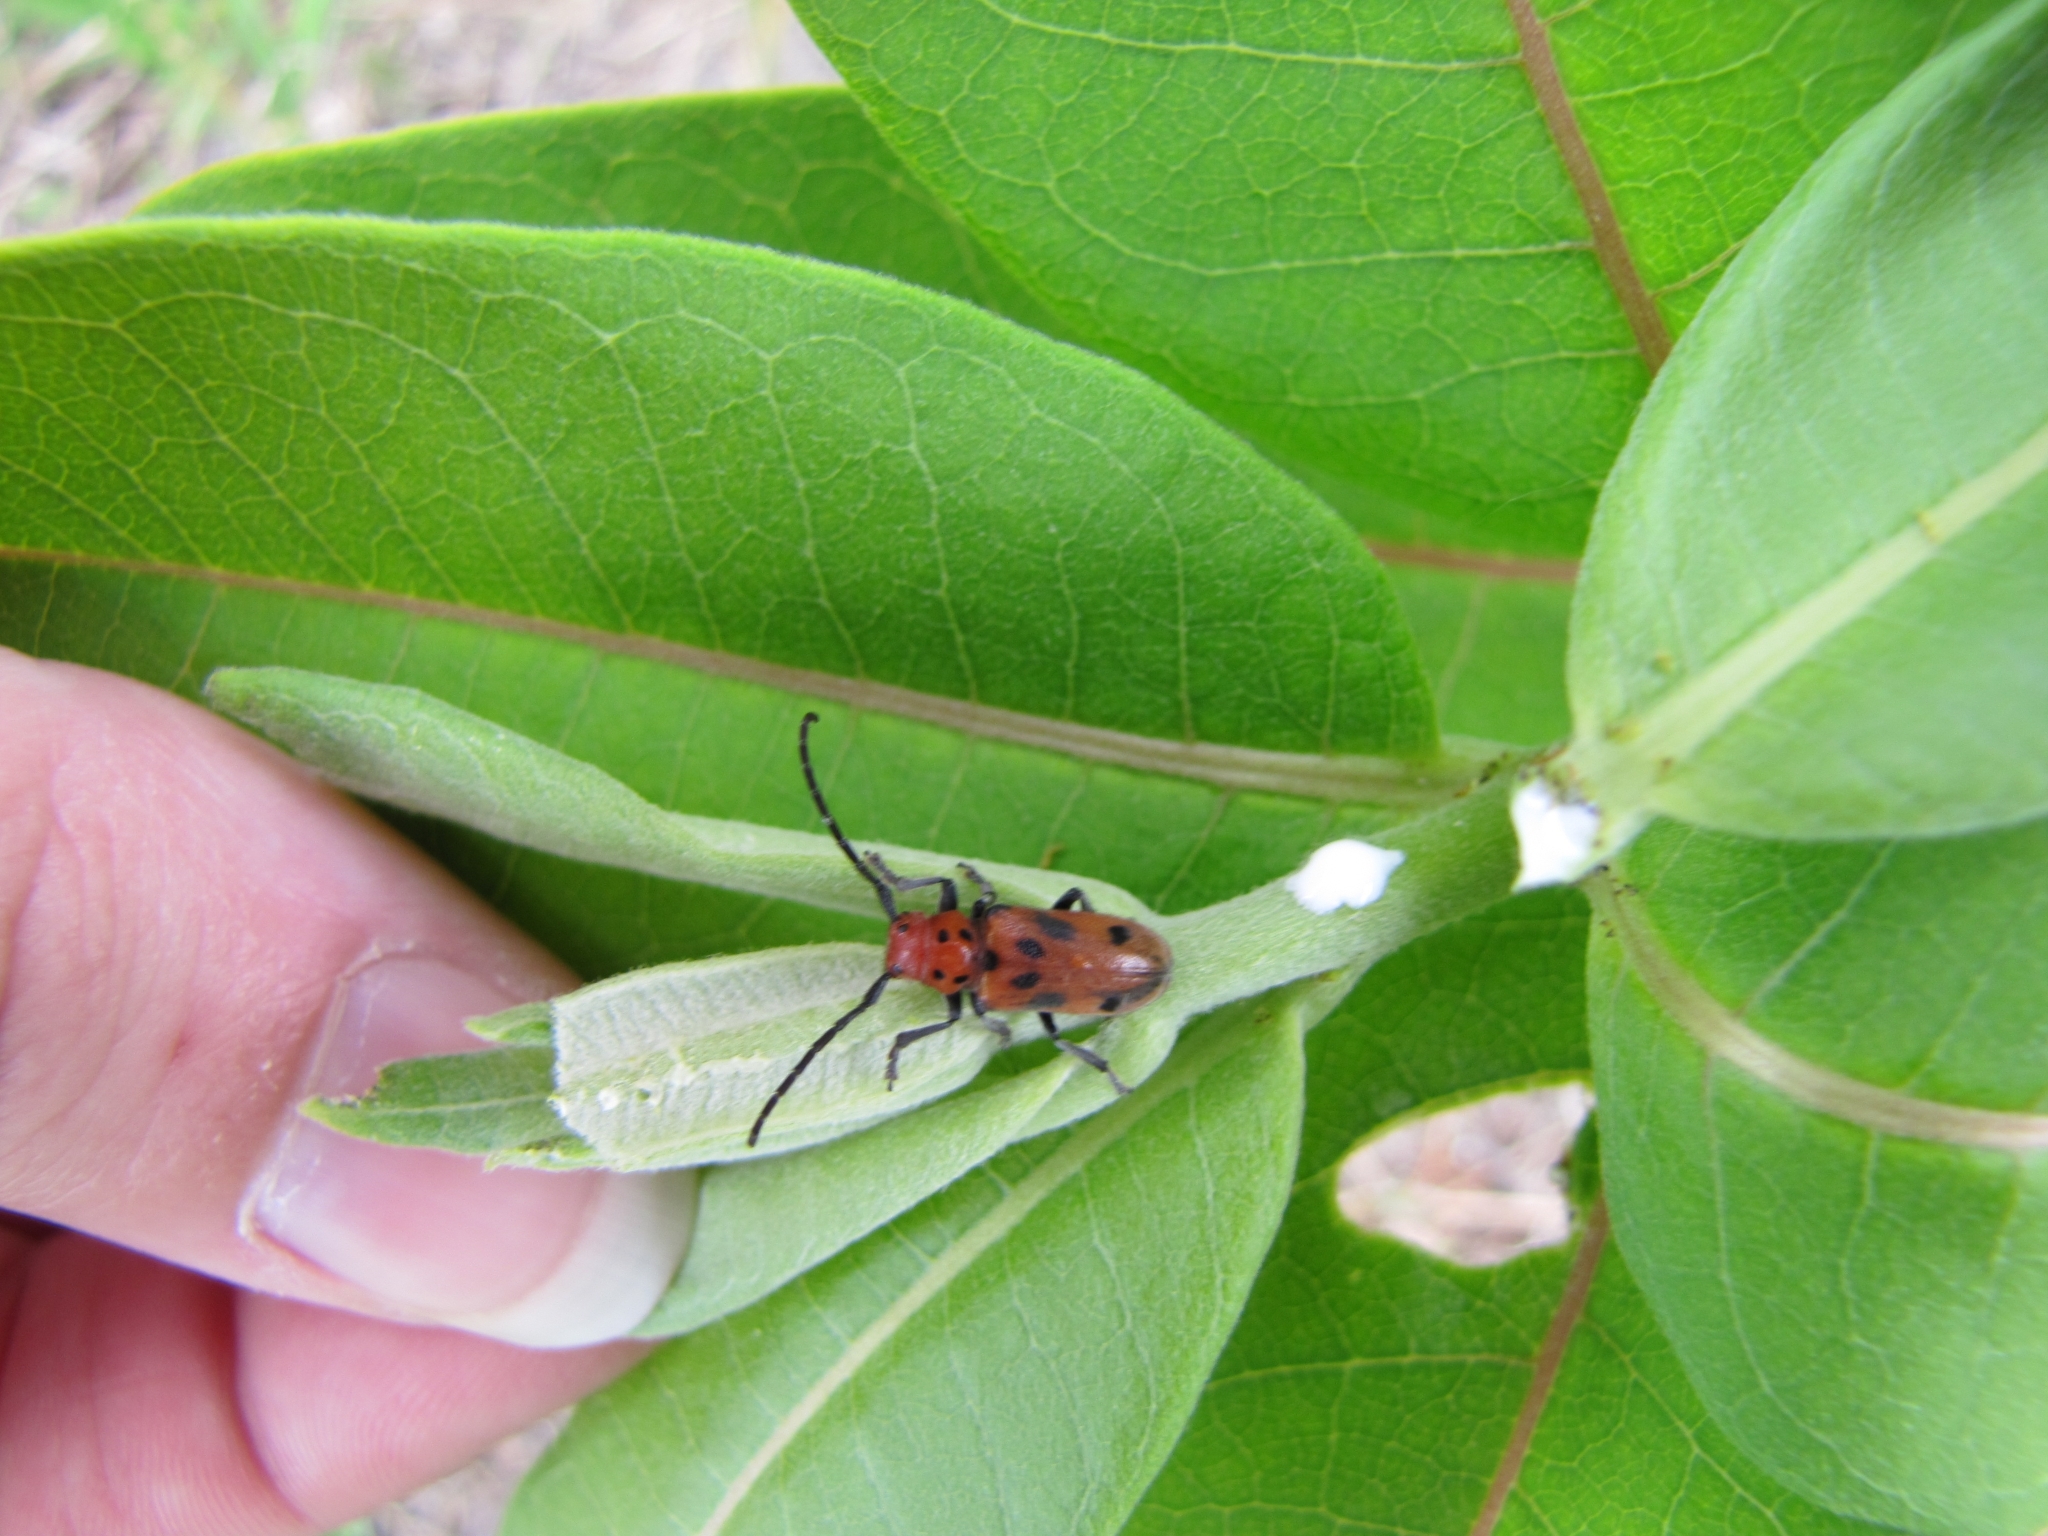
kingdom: Animalia
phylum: Arthropoda
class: Insecta
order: Coleoptera
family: Cerambycidae
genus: Tetraopes
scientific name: Tetraopes tetrophthalmus
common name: Red milkweed beetle
